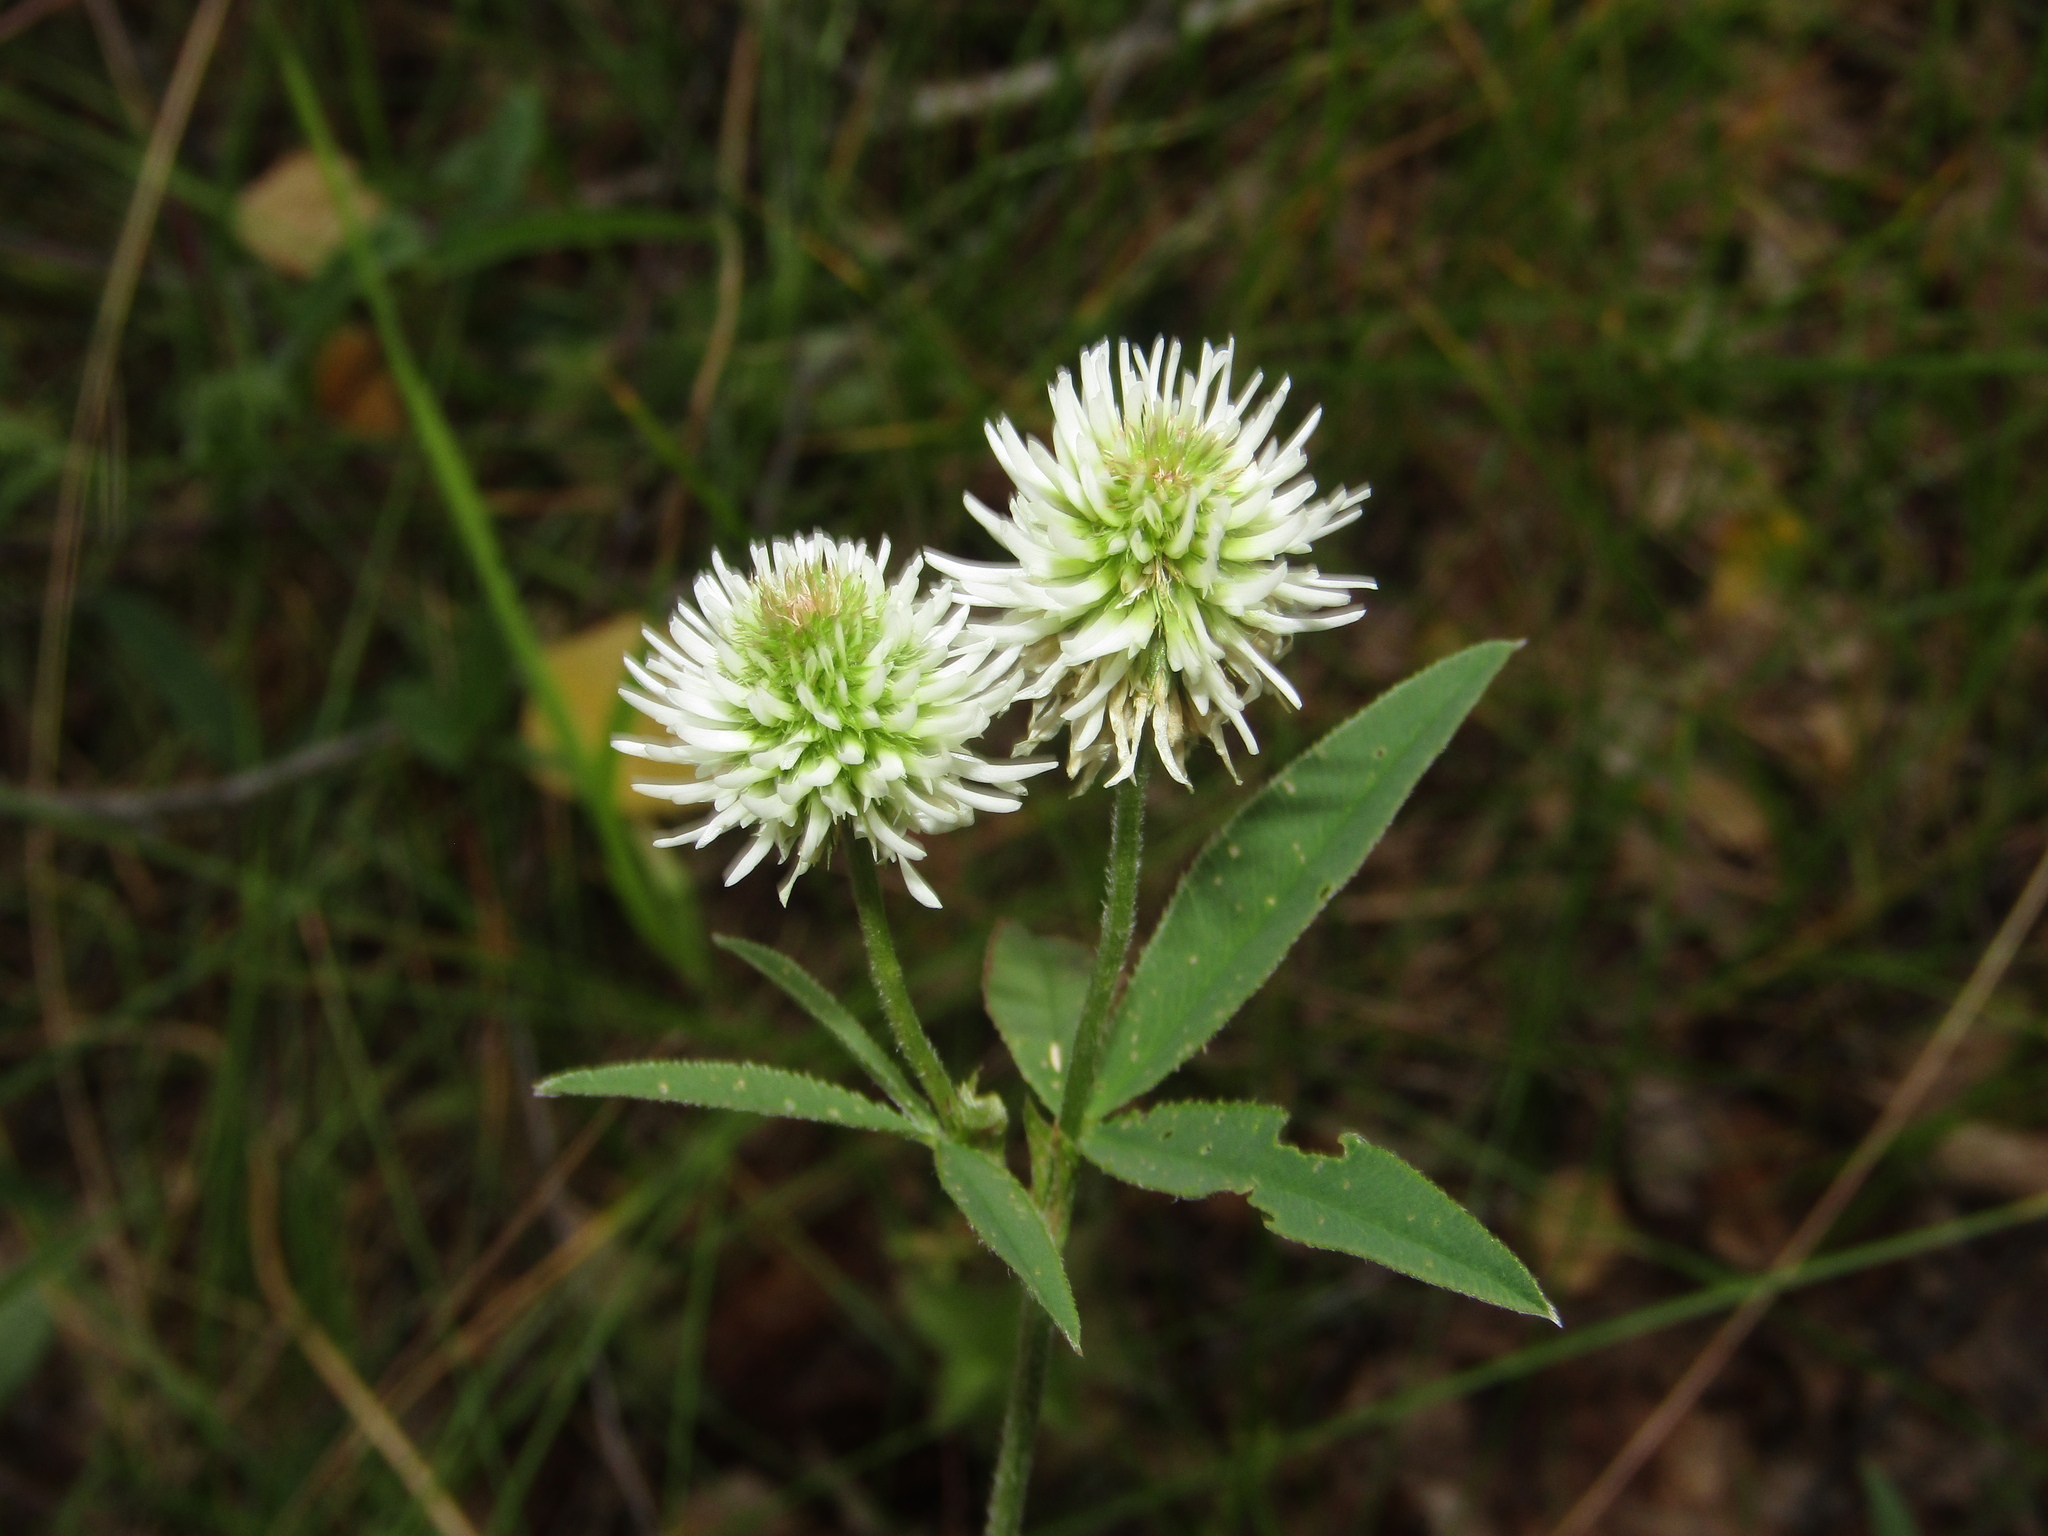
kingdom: Plantae
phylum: Tracheophyta
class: Magnoliopsida
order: Fabales
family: Fabaceae
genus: Trifolium
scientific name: Trifolium montanum
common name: Mountain clover
